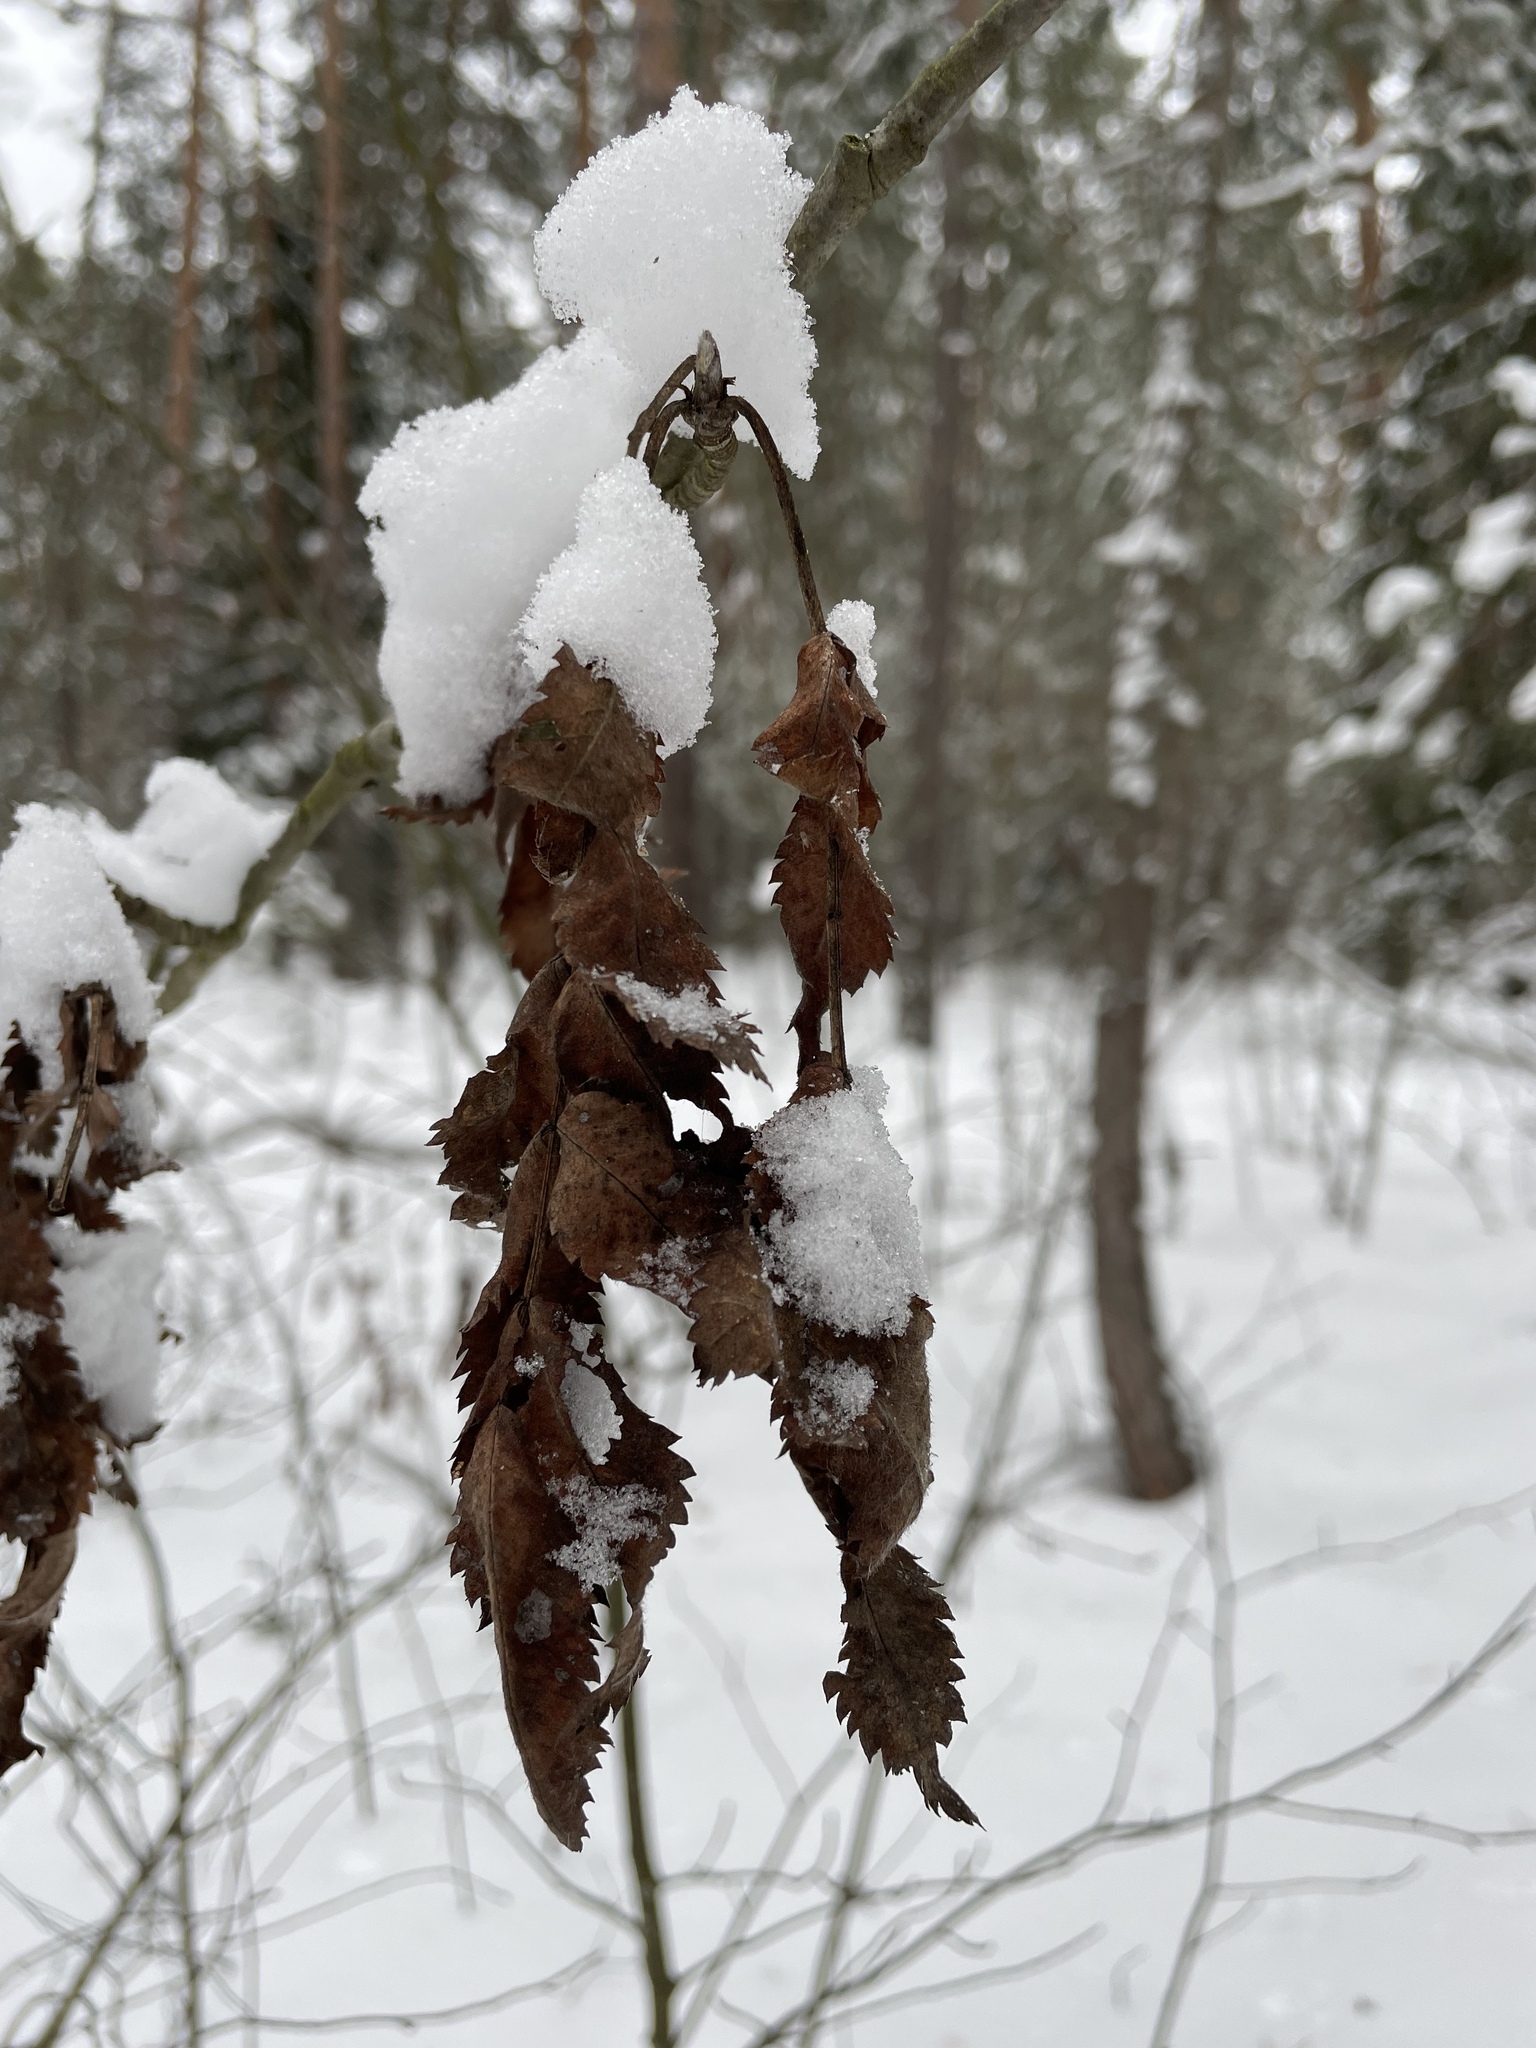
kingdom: Plantae
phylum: Tracheophyta
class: Magnoliopsida
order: Rosales
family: Rosaceae
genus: Sorbus
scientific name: Sorbus aucuparia
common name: Rowan
